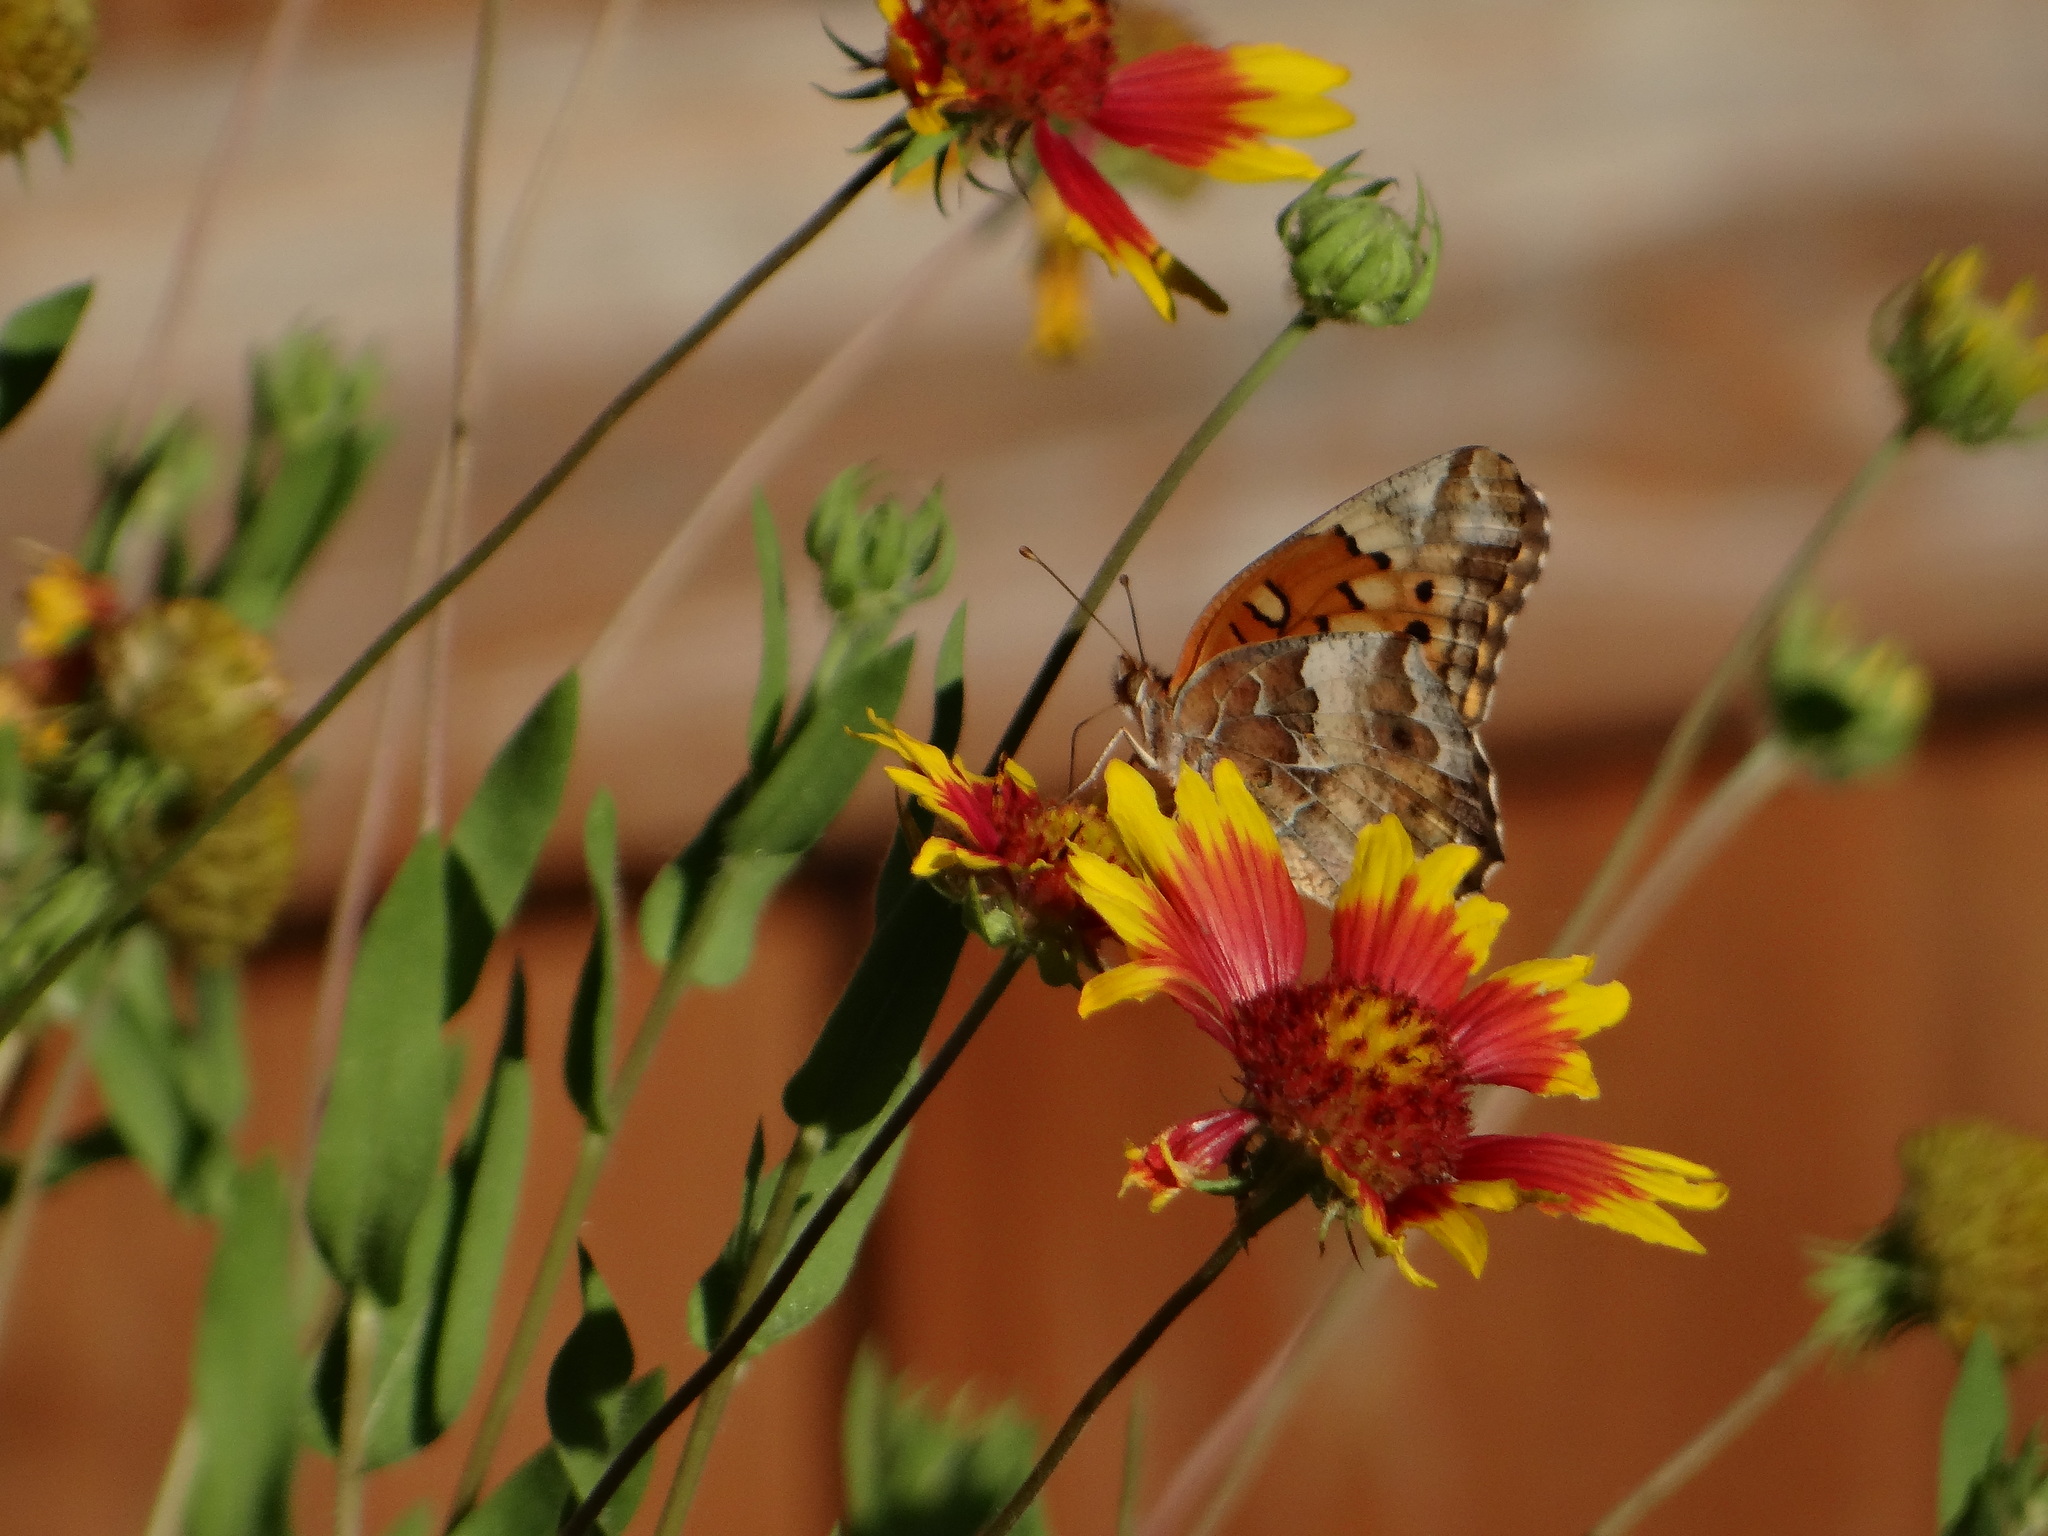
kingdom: Animalia
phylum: Arthropoda
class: Insecta
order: Lepidoptera
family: Nymphalidae
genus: Euptoieta
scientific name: Euptoieta claudia
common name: Variegated fritillary
